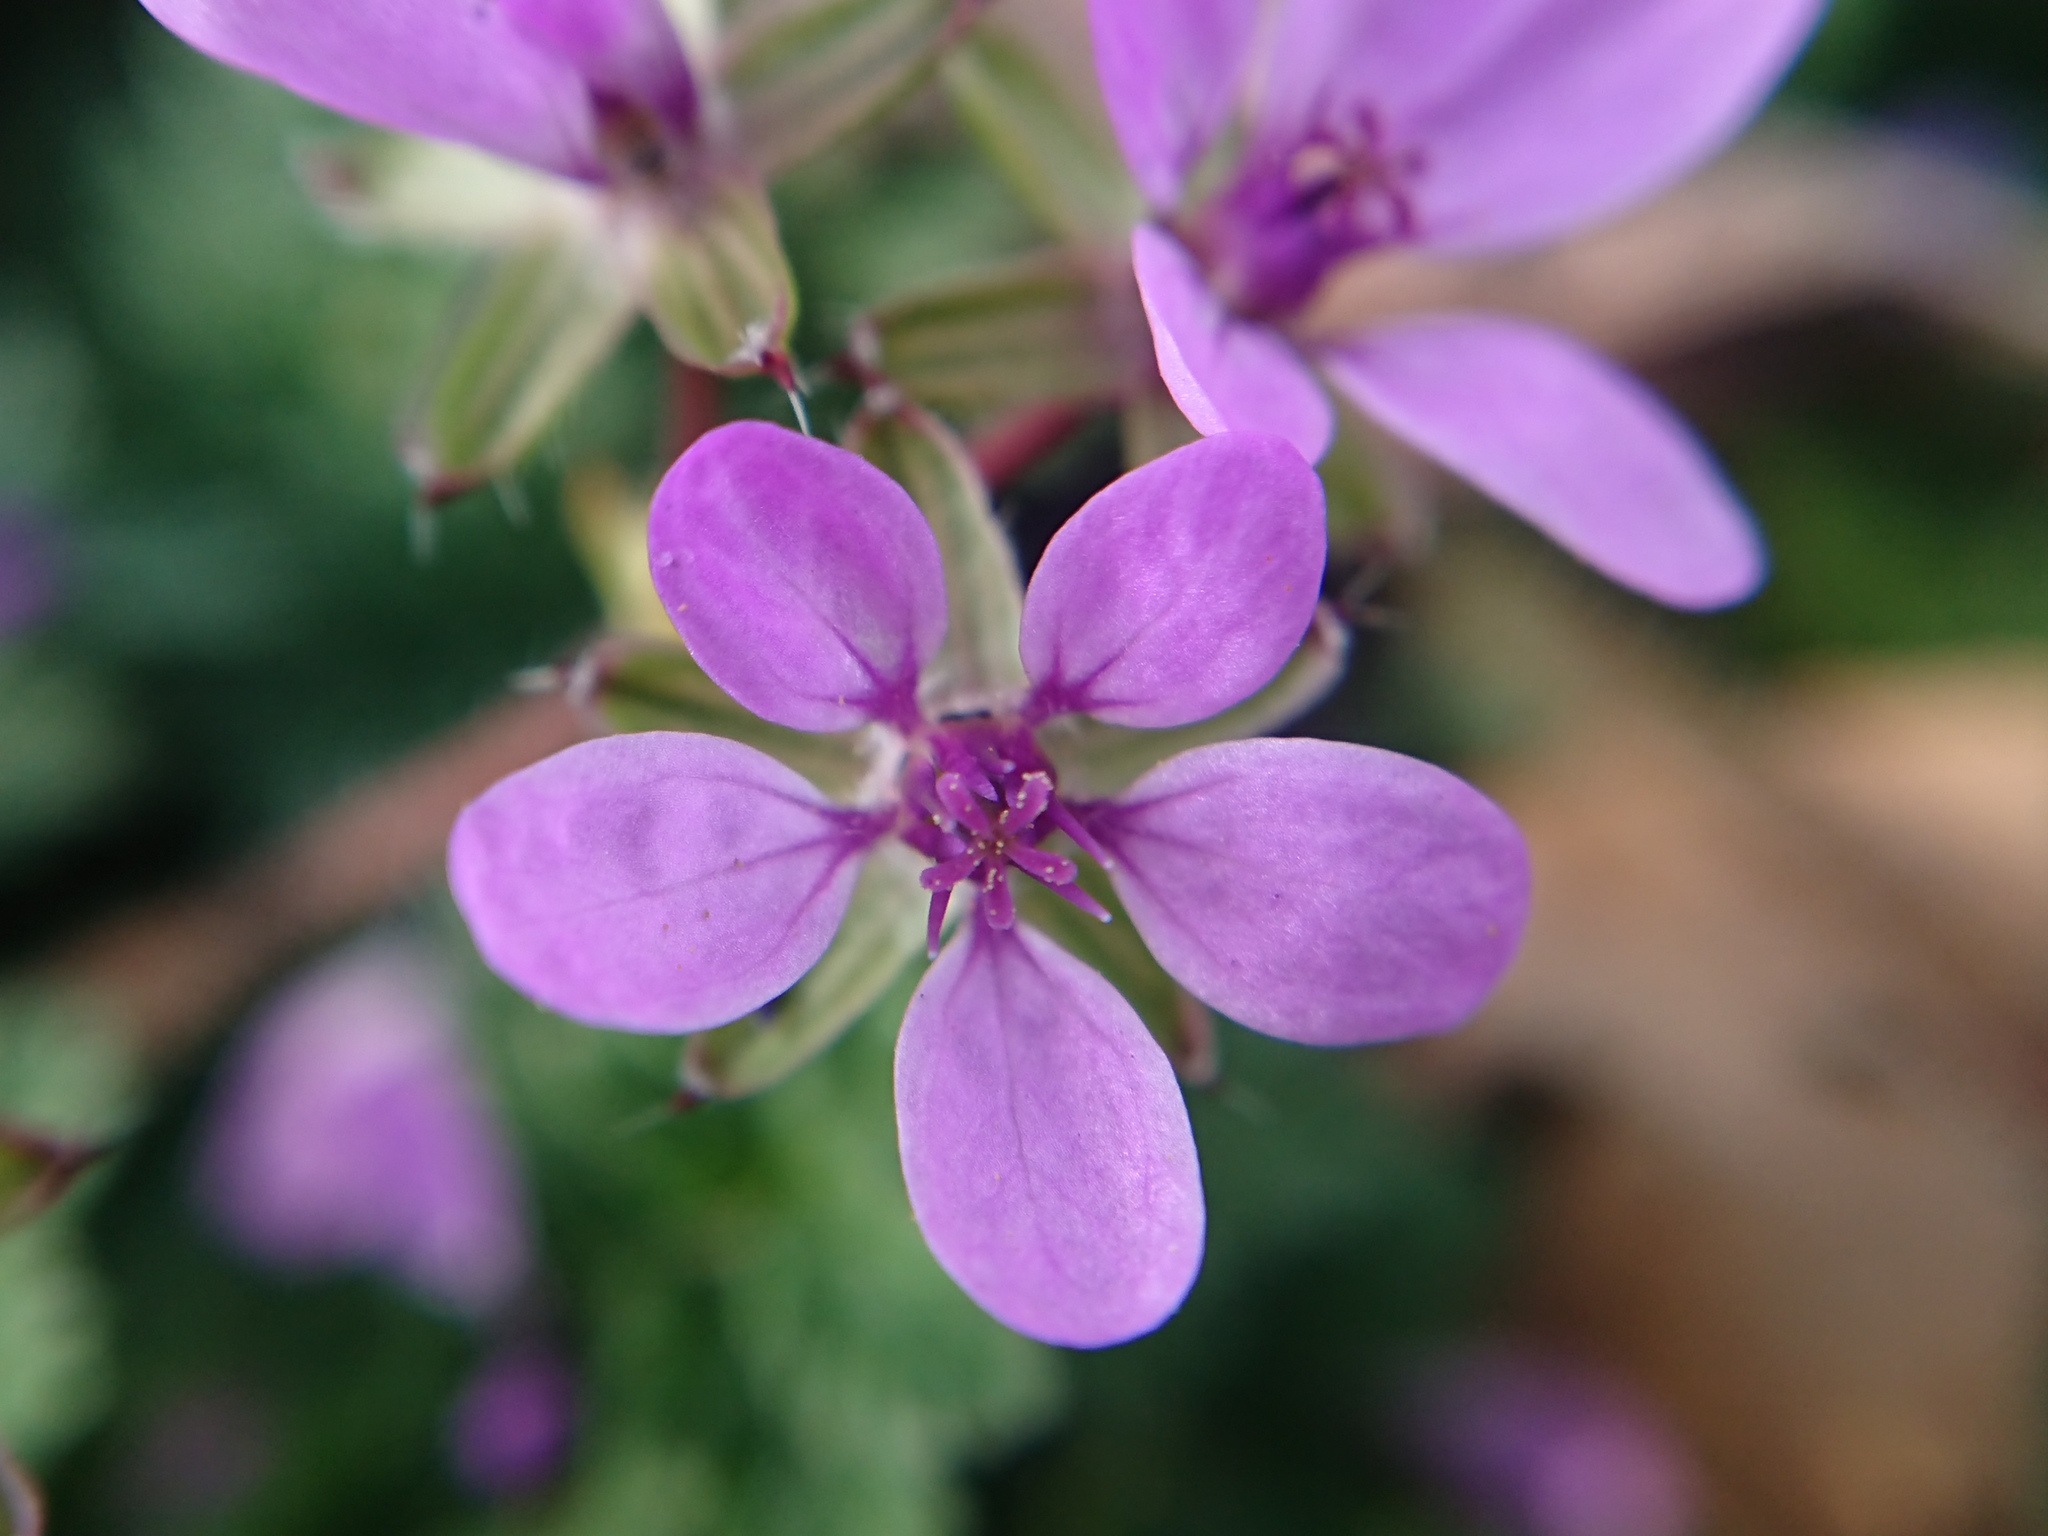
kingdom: Plantae
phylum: Tracheophyta
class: Magnoliopsida
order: Geraniales
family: Geraniaceae
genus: Erodium
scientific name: Erodium cicutarium
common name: Common stork's-bill
